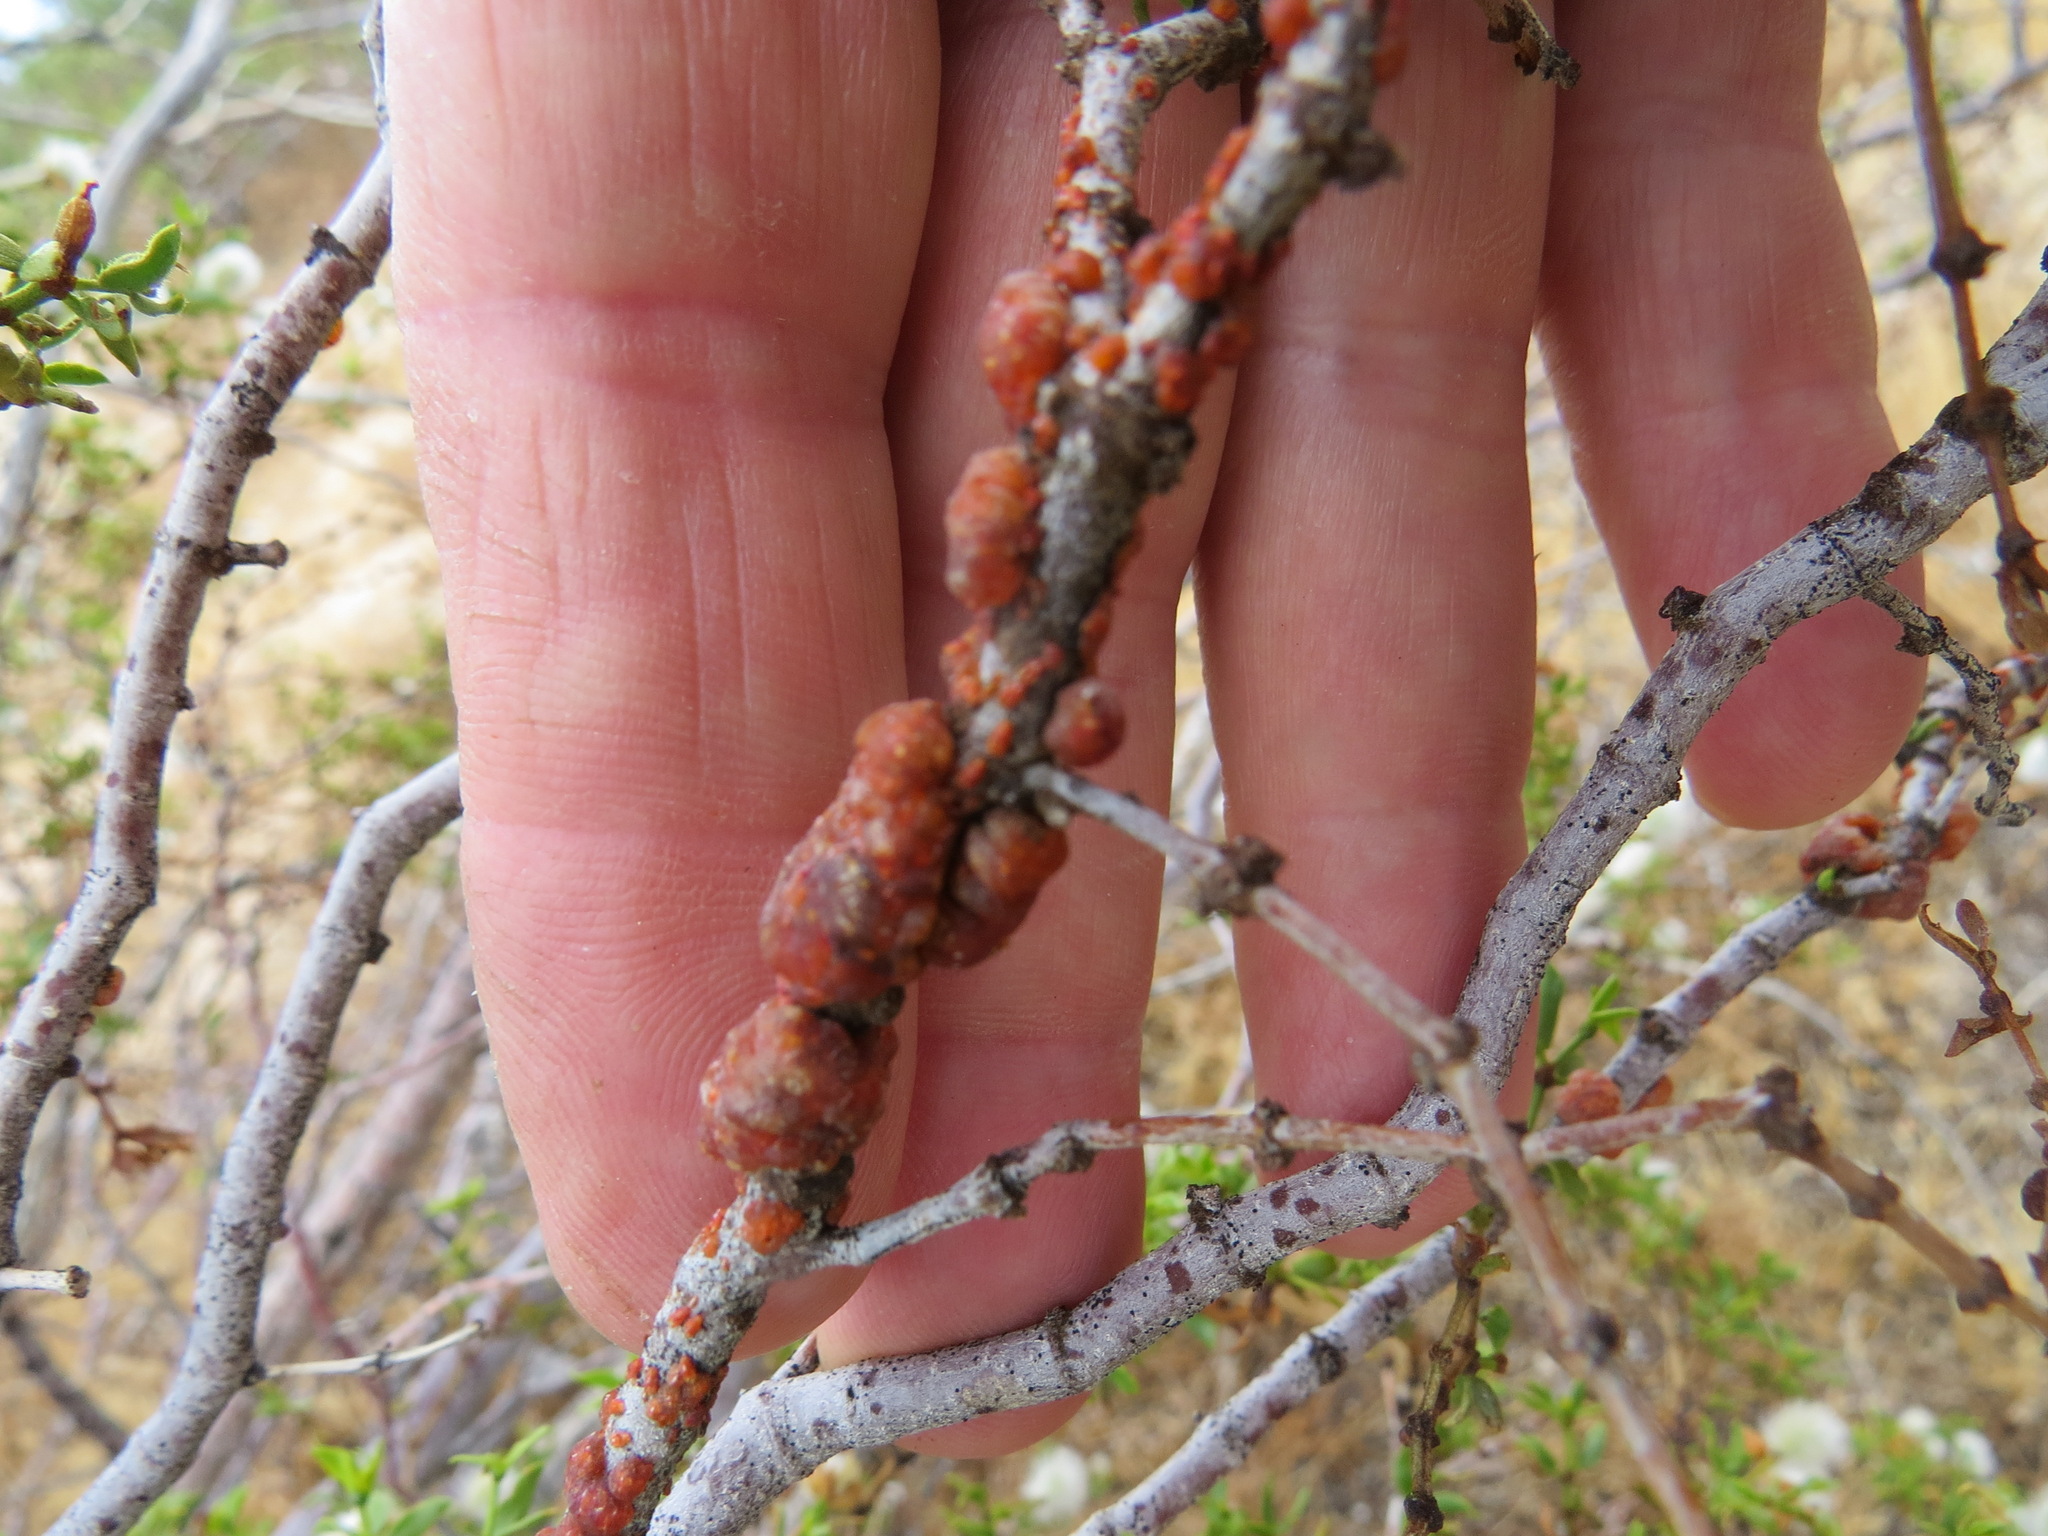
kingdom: Animalia
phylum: Arthropoda
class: Insecta
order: Hemiptera
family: Kerriidae
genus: Tachardiella
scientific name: Tachardiella larreae
